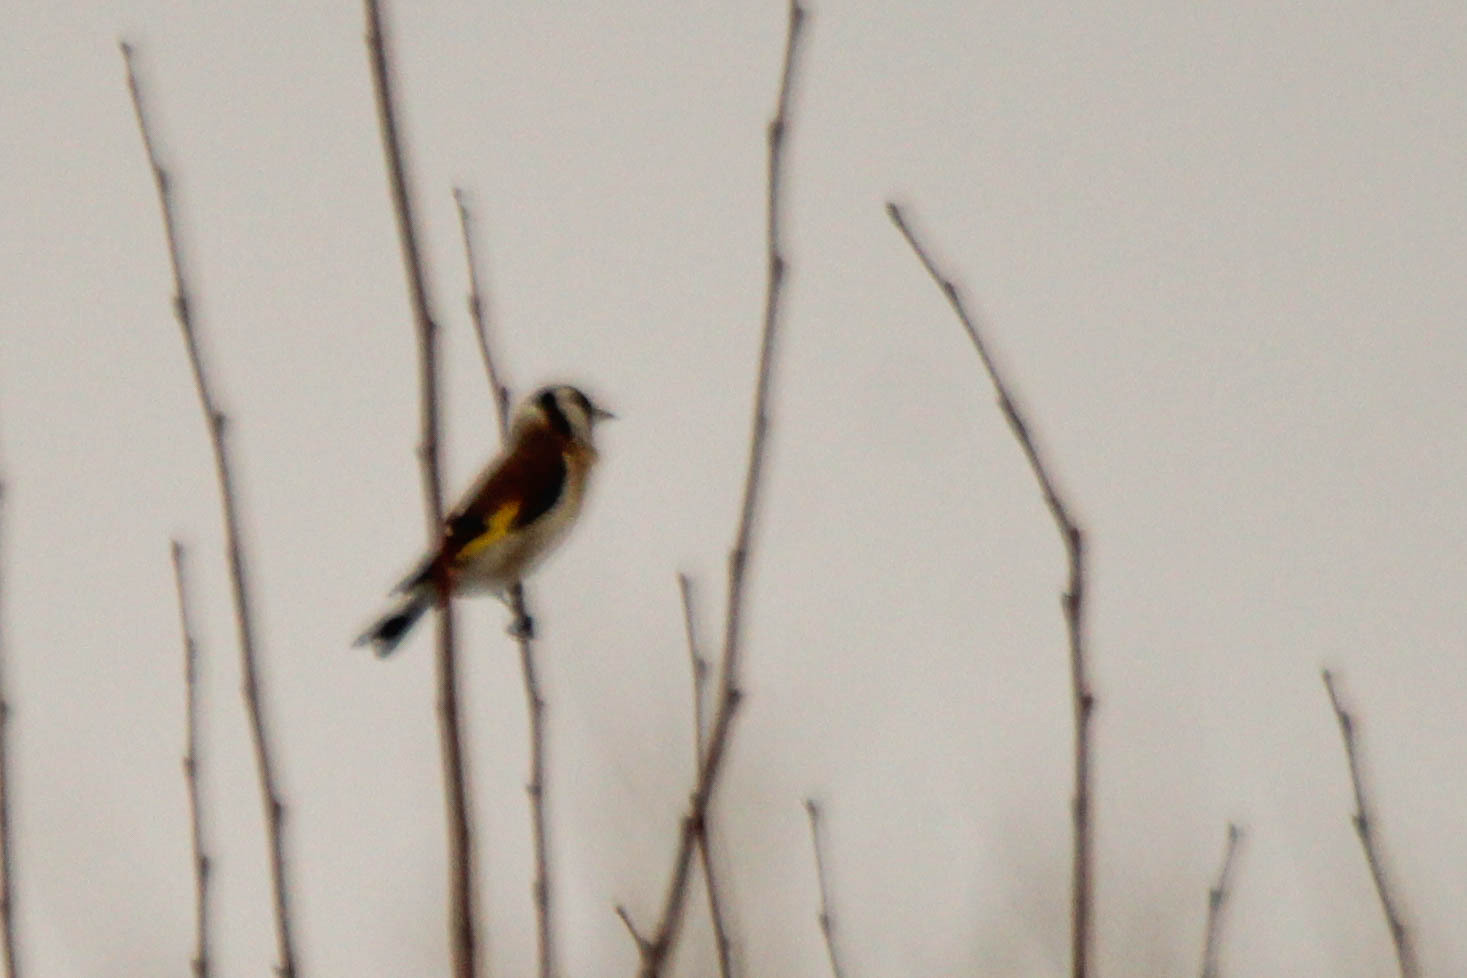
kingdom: Animalia
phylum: Chordata
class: Aves
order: Passeriformes
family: Fringillidae
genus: Carduelis
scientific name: Carduelis carduelis
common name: European goldfinch
